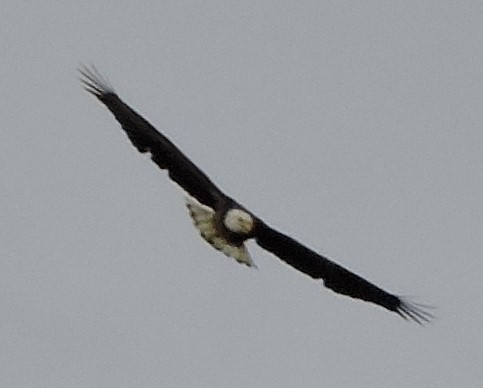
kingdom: Animalia
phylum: Chordata
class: Aves
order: Accipitriformes
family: Accipitridae
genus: Haliaeetus
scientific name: Haliaeetus leucocephalus
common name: Bald eagle
